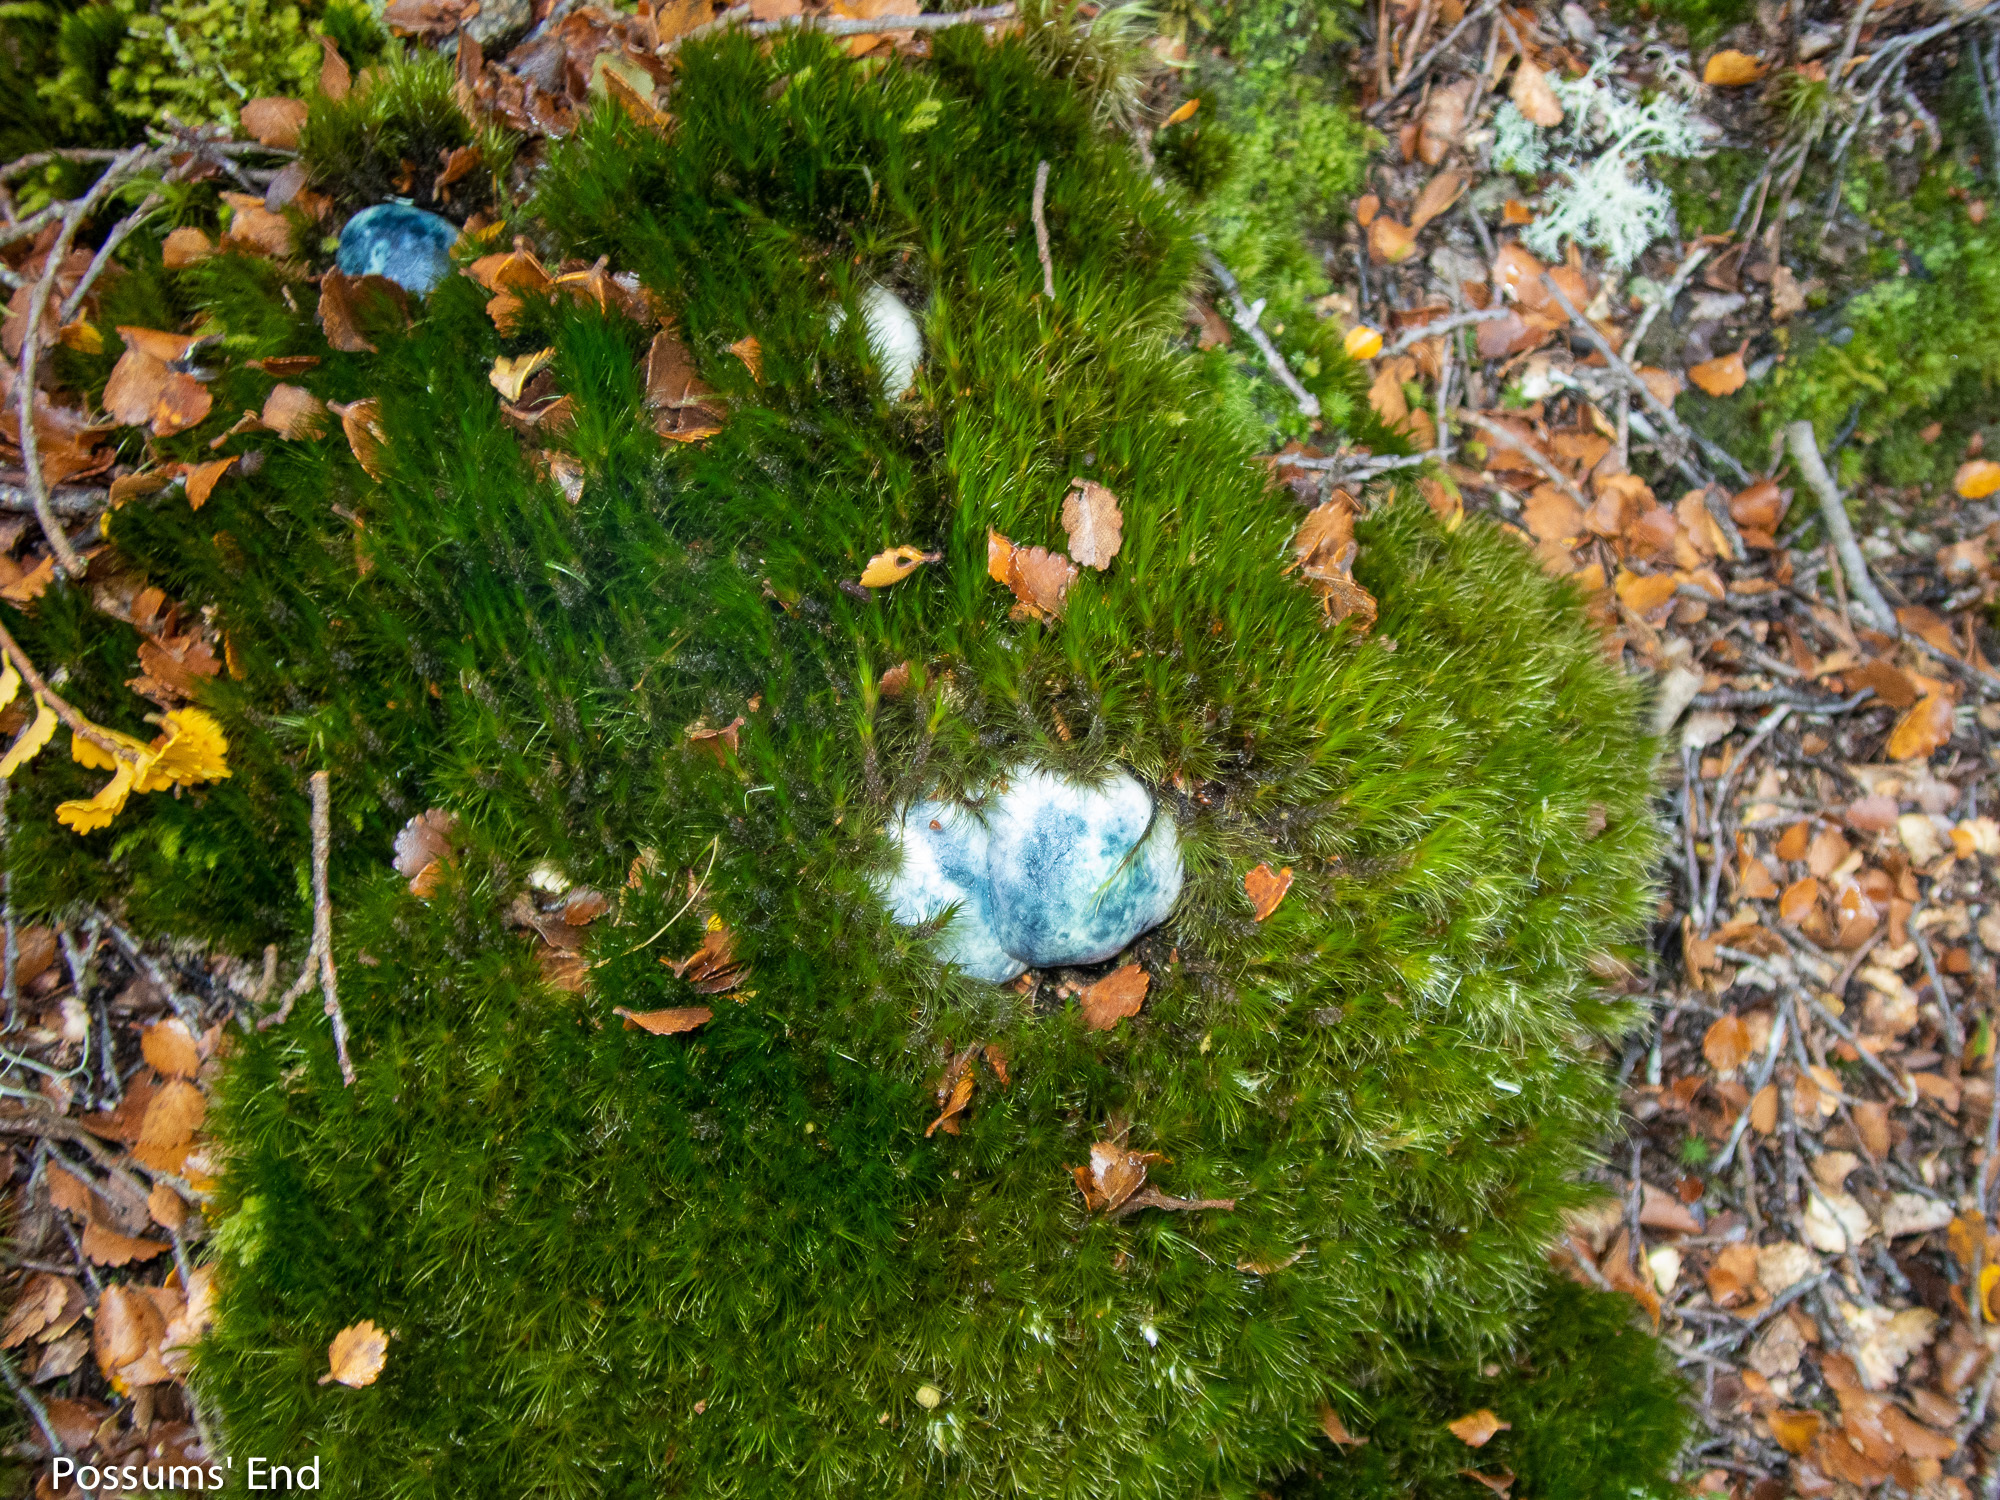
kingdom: Fungi
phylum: Basidiomycota
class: Agaricomycetes
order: Boletales
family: Boletaceae
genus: Leccinum
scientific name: Leccinum pachyderme
